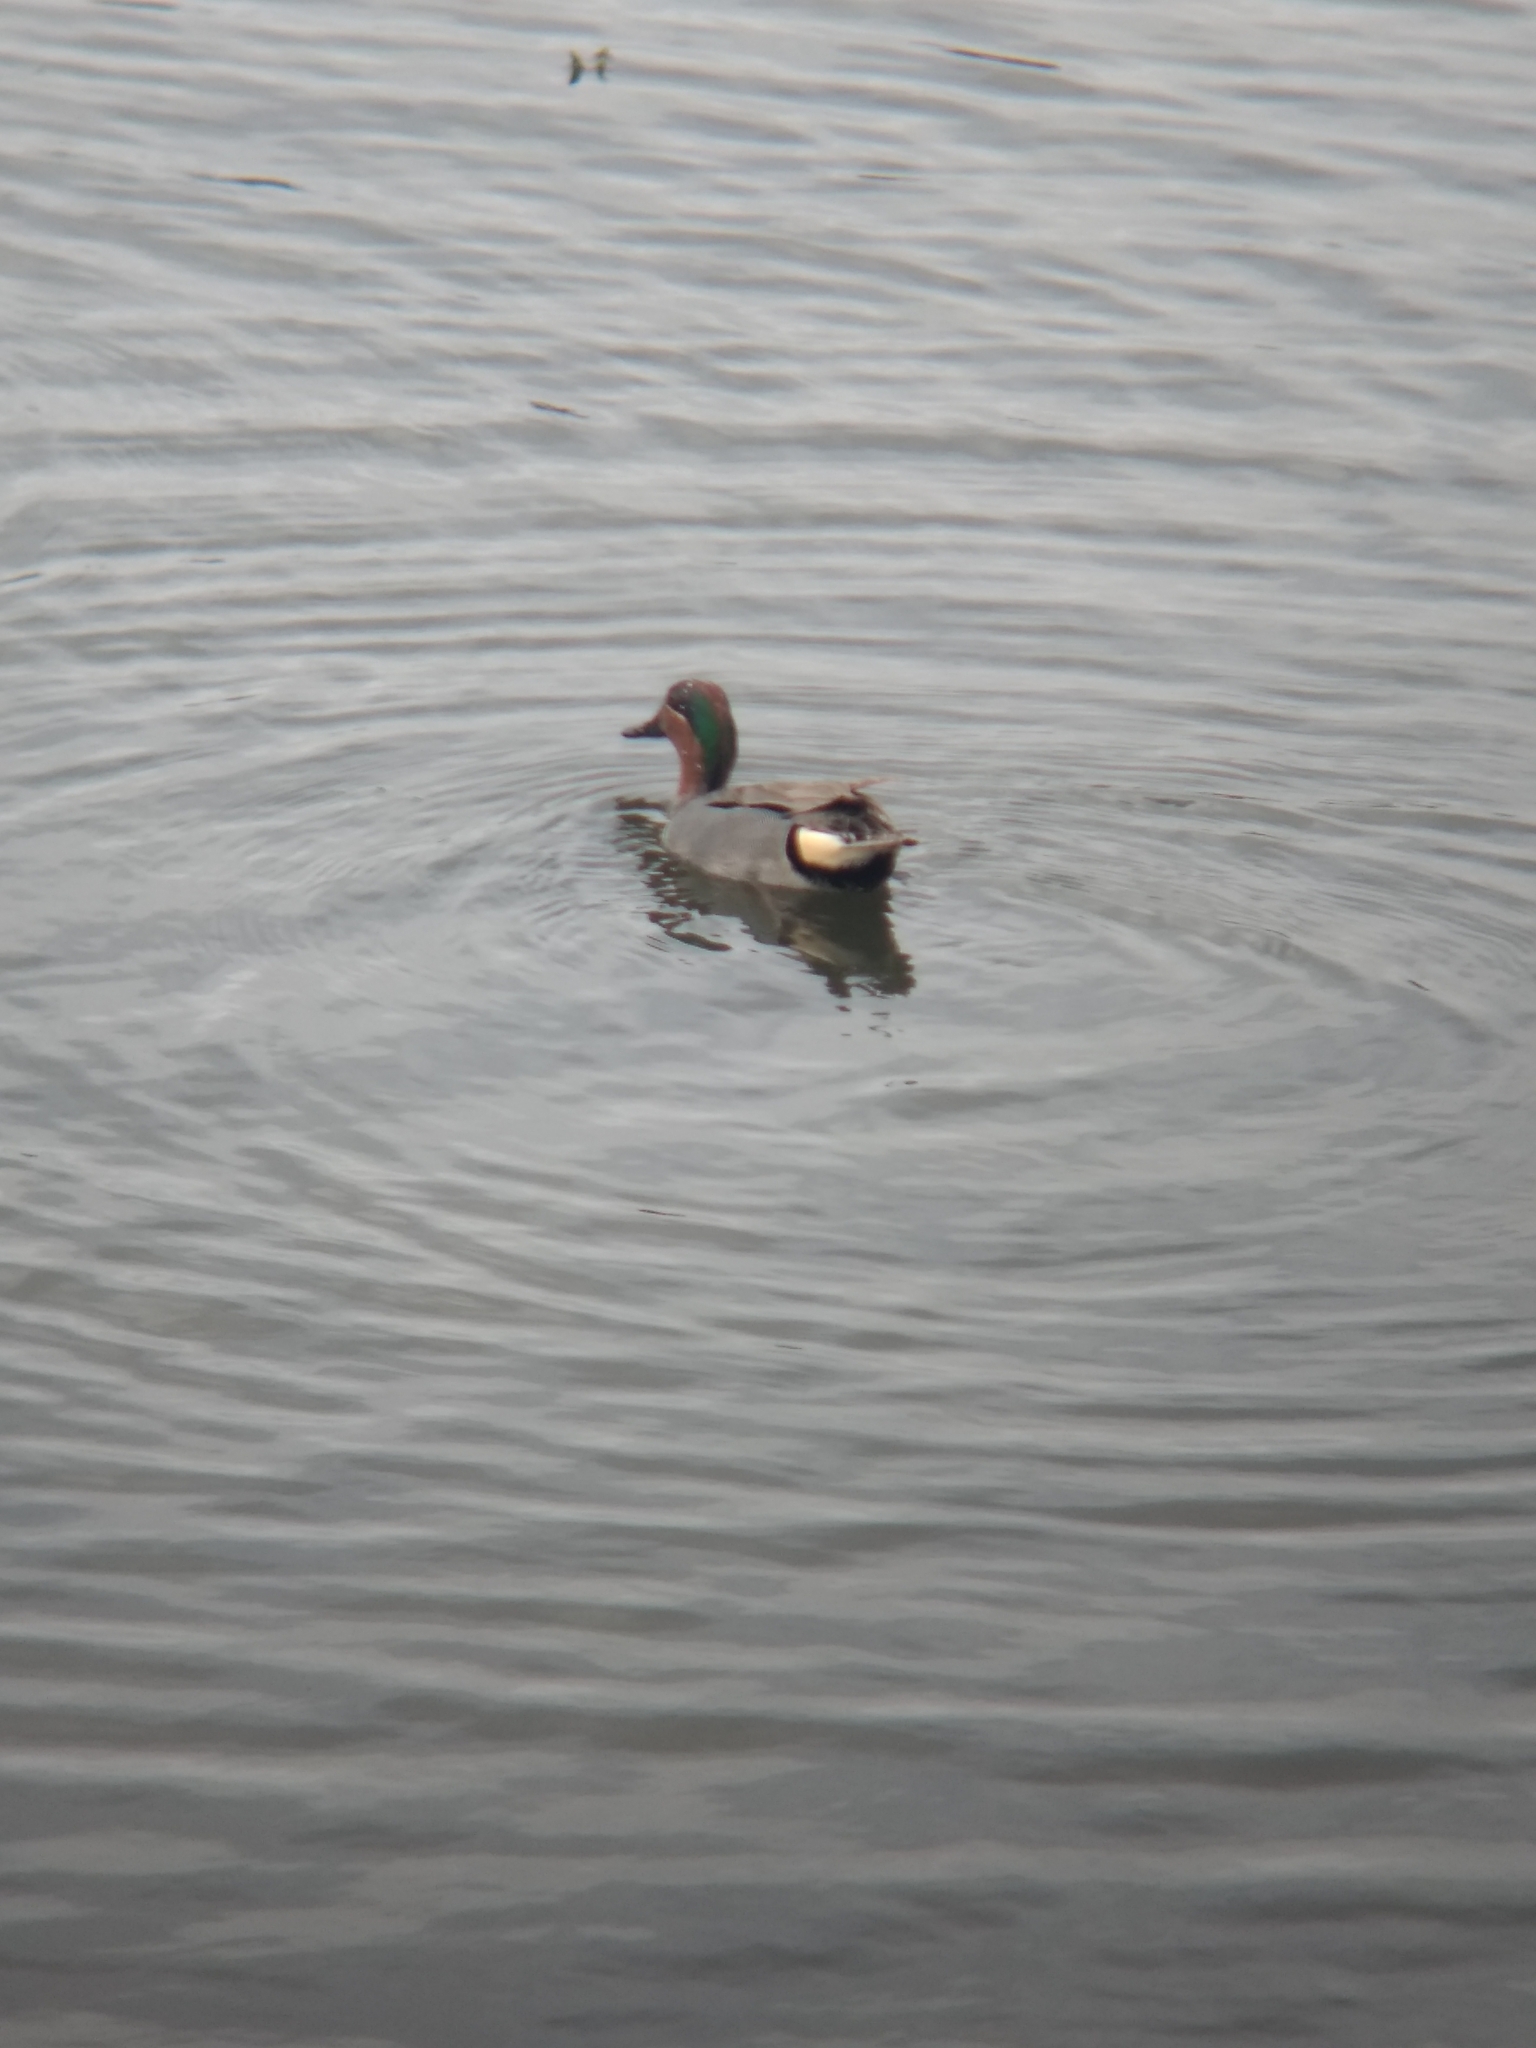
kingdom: Animalia
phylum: Chordata
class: Aves
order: Anseriformes
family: Anatidae
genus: Anas
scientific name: Anas crecca
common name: Eurasian teal
